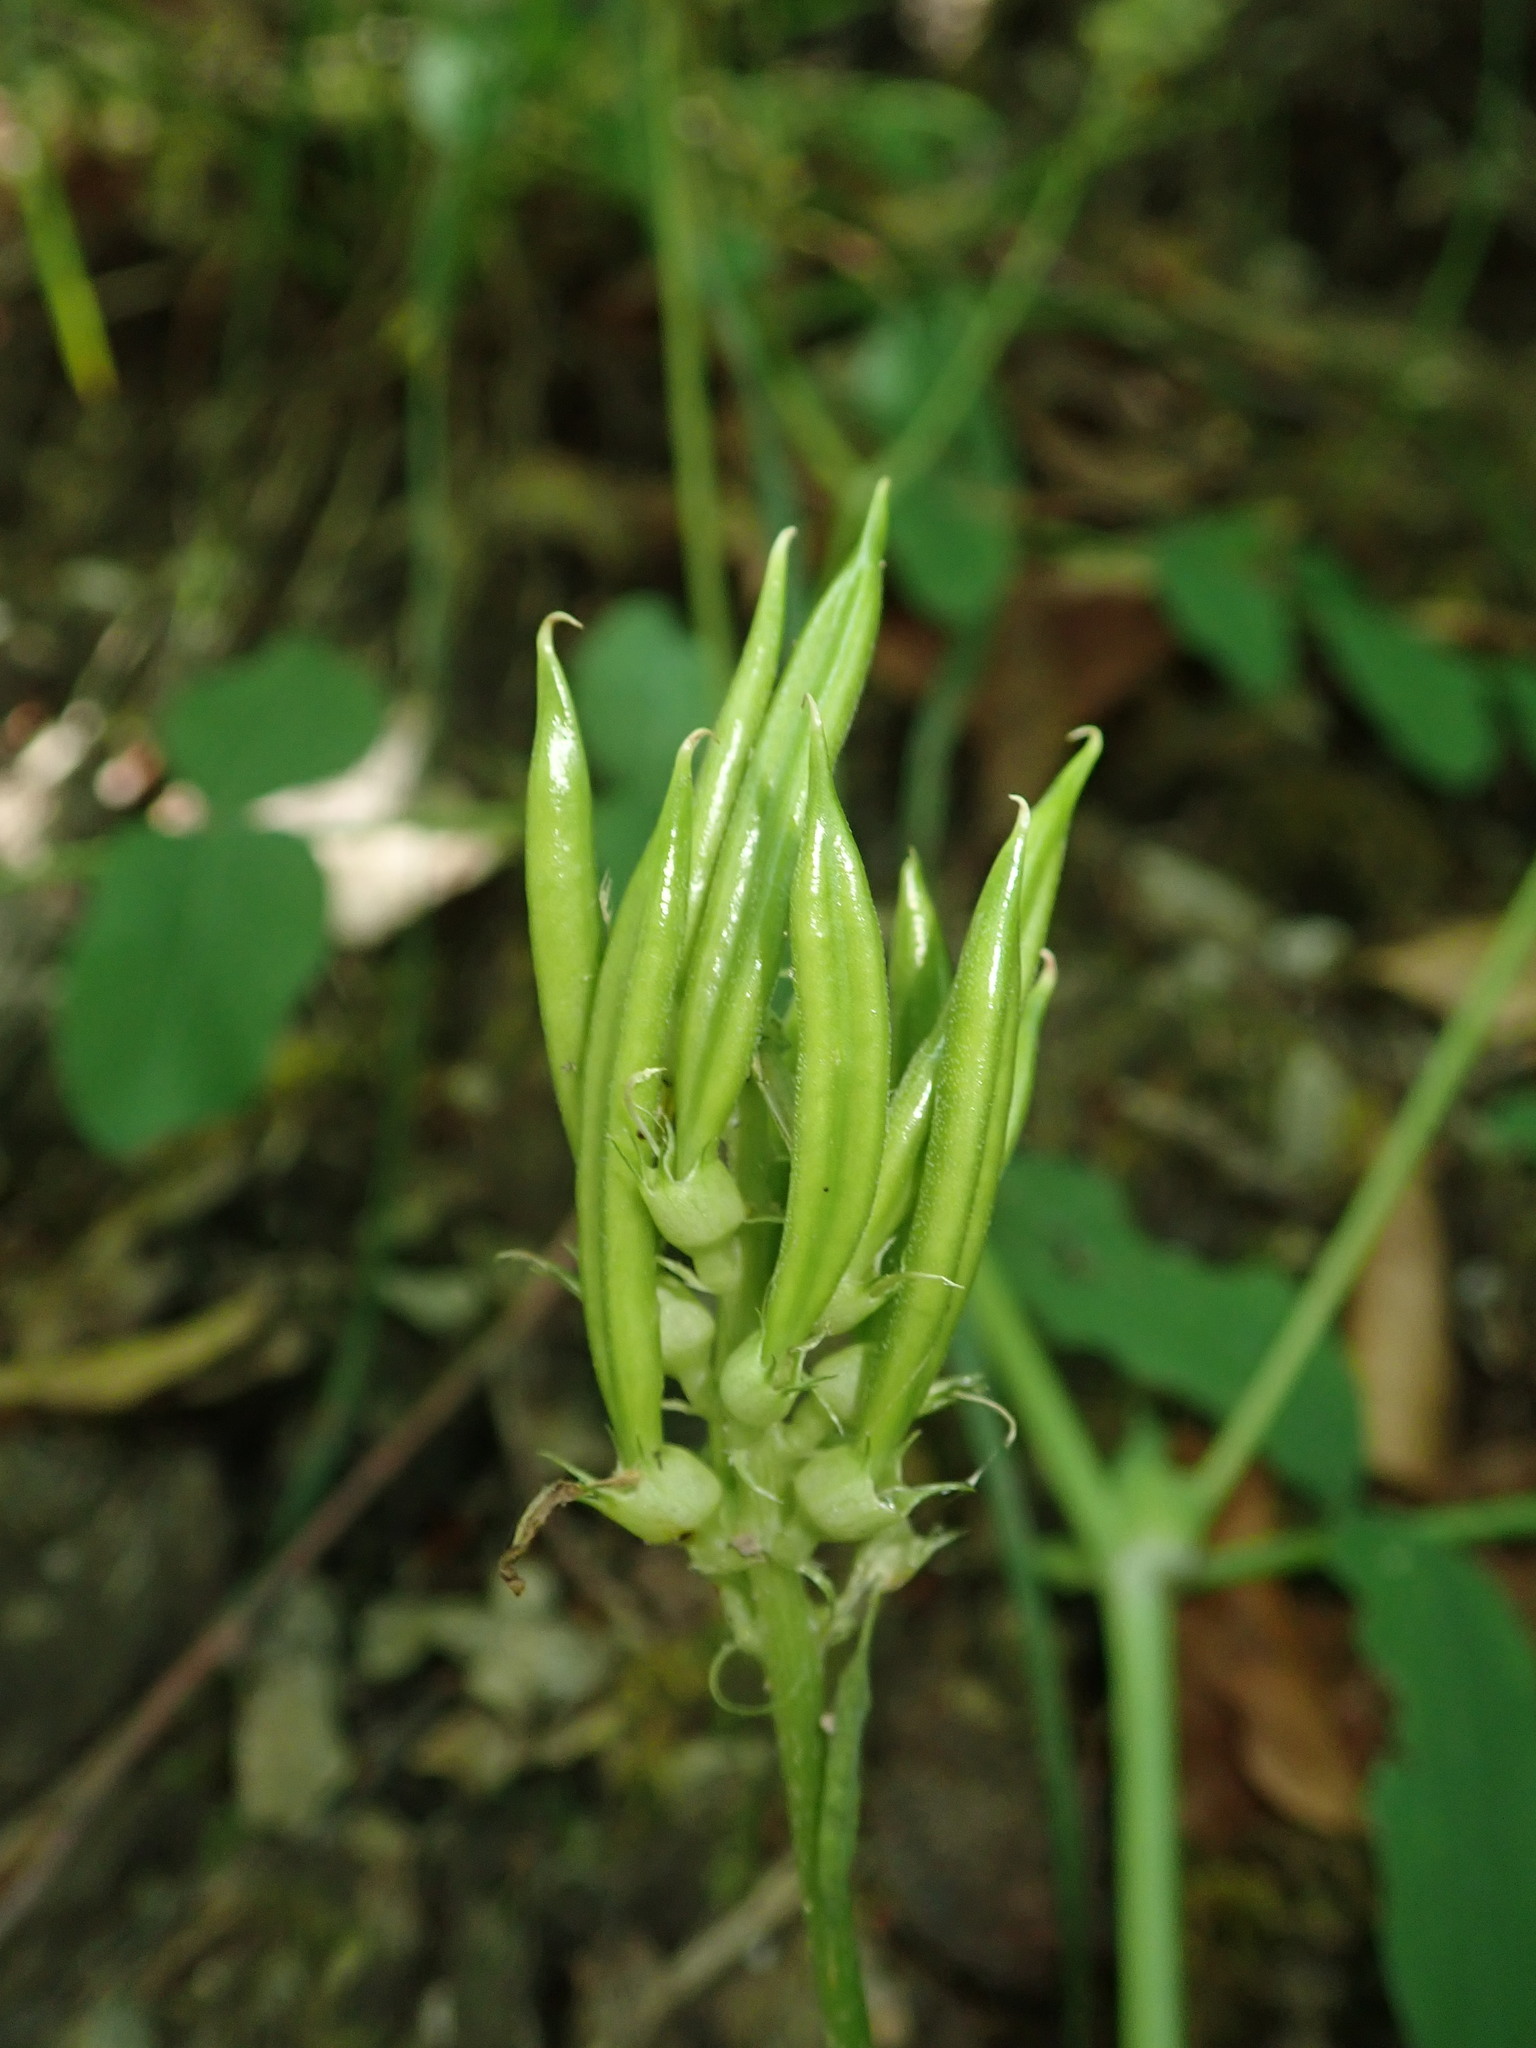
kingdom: Plantae
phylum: Tracheophyta
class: Magnoliopsida
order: Fabales
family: Fabaceae
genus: Astragalus
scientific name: Astragalus glycyphyllos
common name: Wild liquorice
